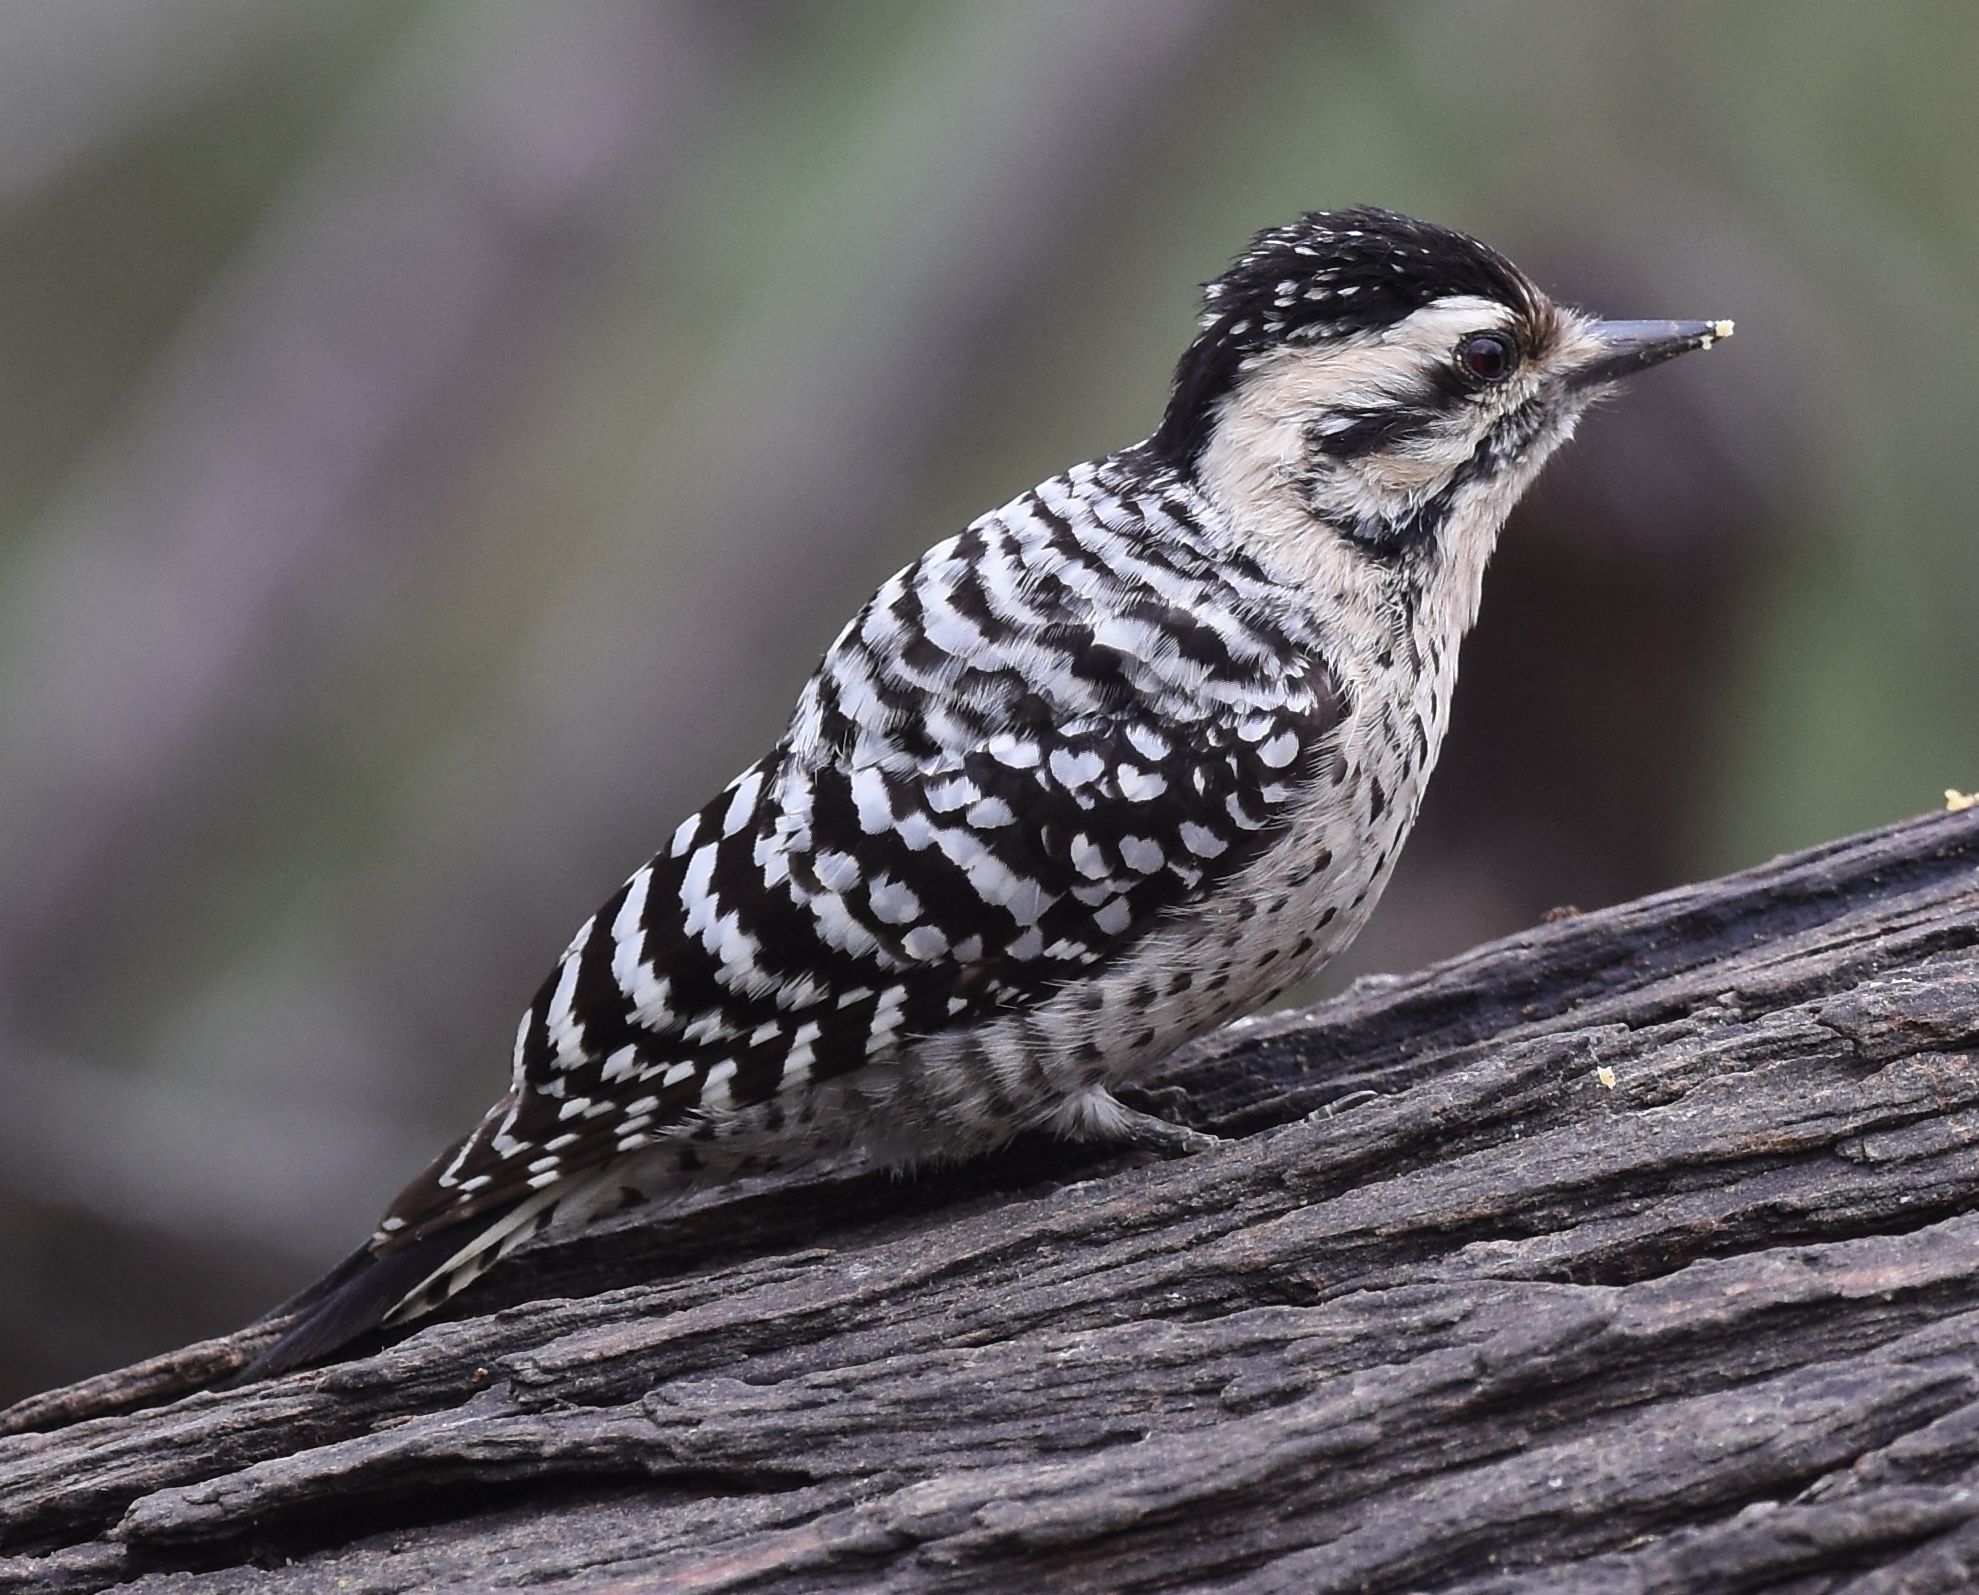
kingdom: Animalia
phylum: Chordata
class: Aves
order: Piciformes
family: Picidae
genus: Dryobates
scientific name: Dryobates scalaris
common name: Ladder-backed woodpecker
